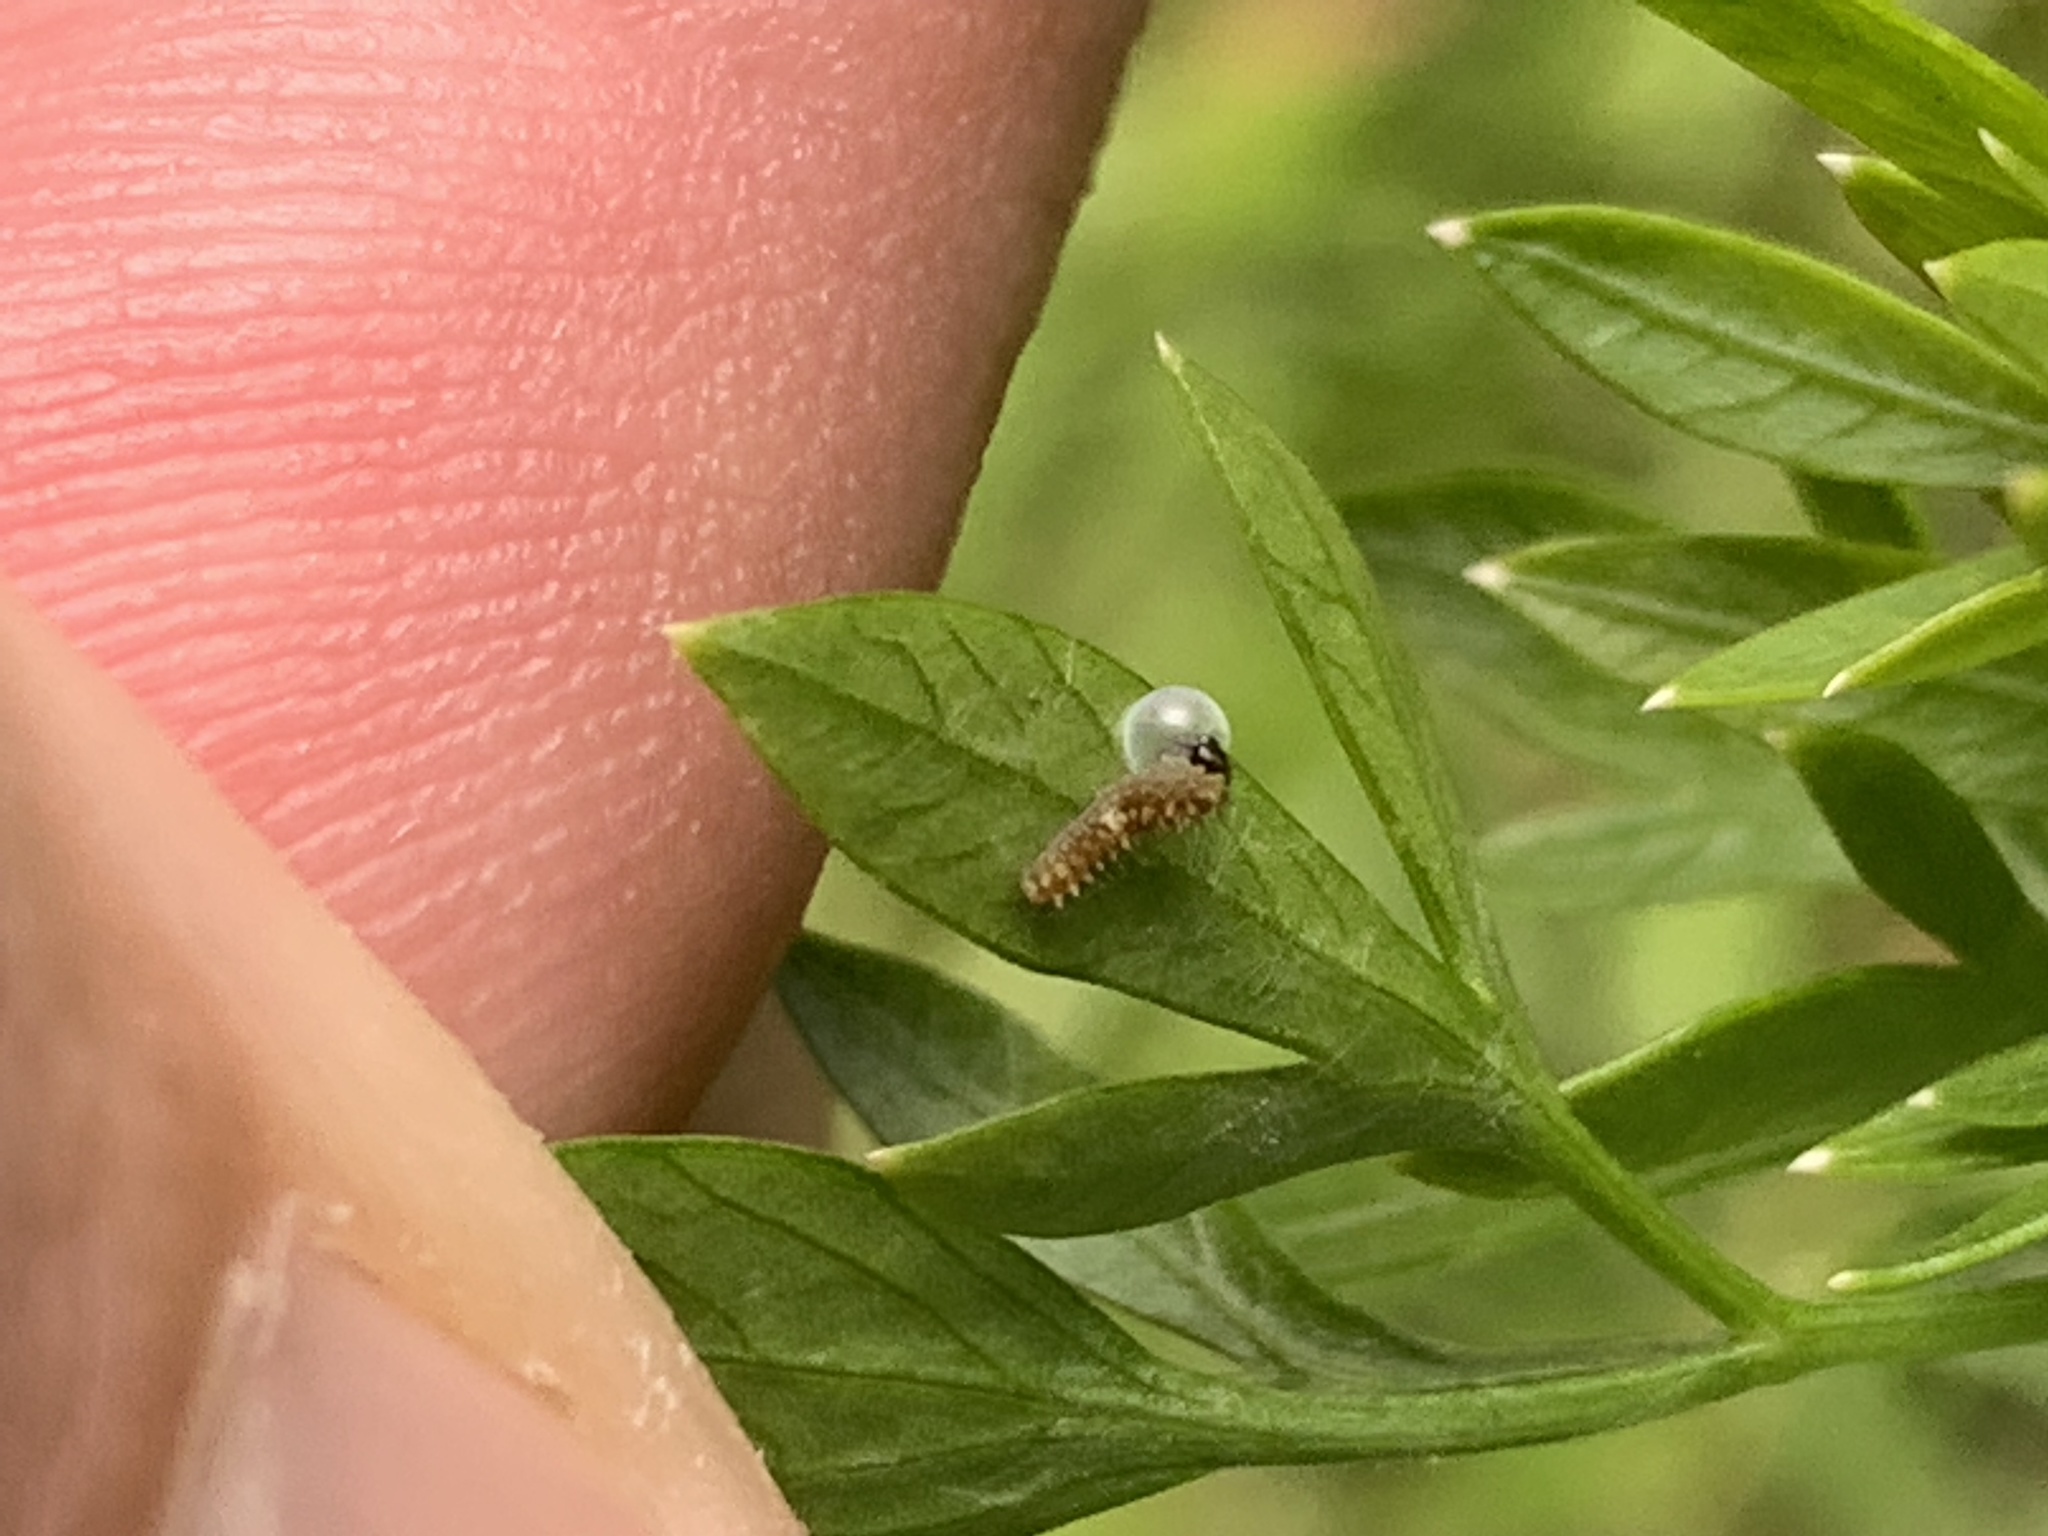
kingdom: Animalia
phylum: Arthropoda
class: Insecta
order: Lepidoptera
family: Papilionidae
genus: Papilio
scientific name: Papilio polyxenes
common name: Black swallowtail
